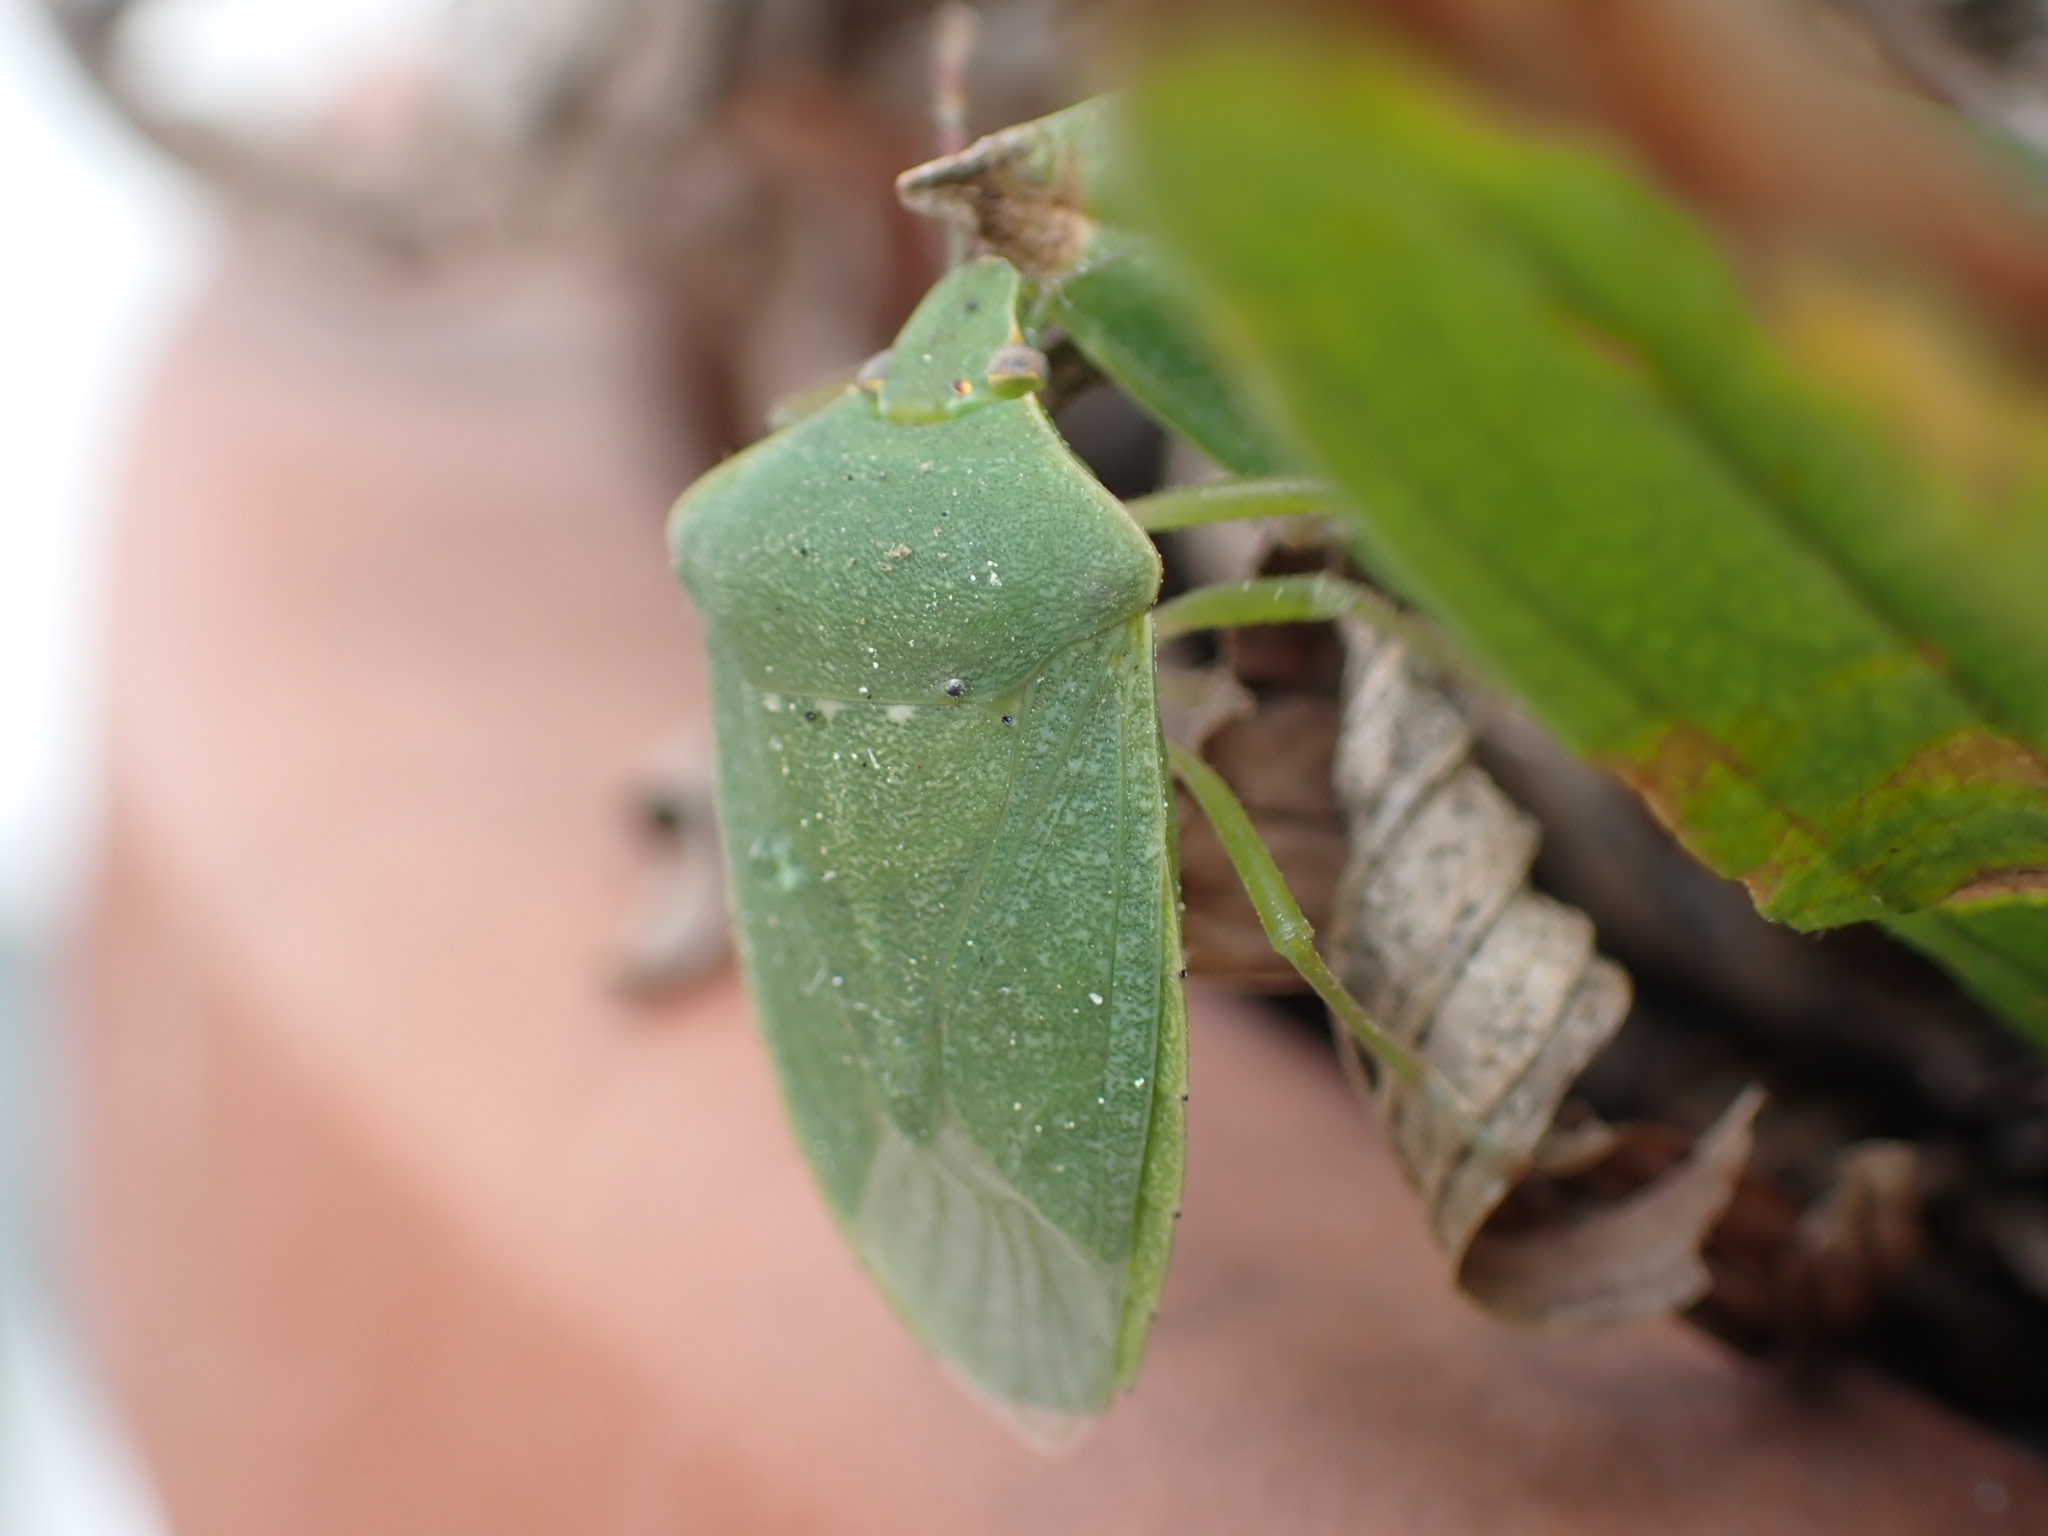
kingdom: Animalia
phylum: Arthropoda
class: Insecta
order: Hemiptera
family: Pentatomidae
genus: Nezara
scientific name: Nezara viridula
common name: Southern green stink bug
